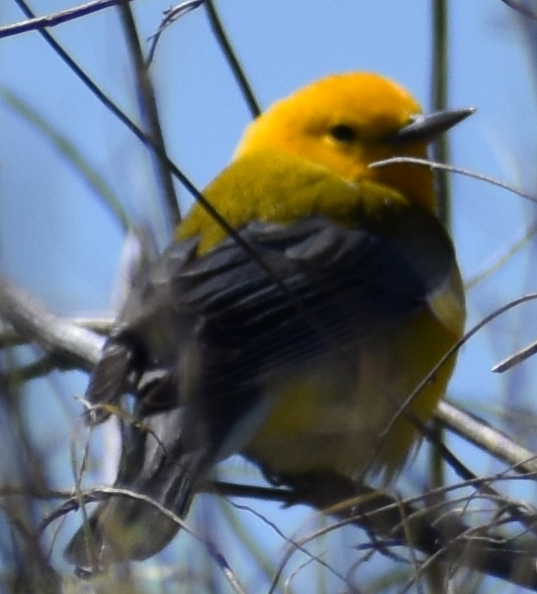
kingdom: Animalia
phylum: Chordata
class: Aves
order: Passeriformes
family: Parulidae
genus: Protonotaria
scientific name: Protonotaria citrea
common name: Prothonotary warbler
